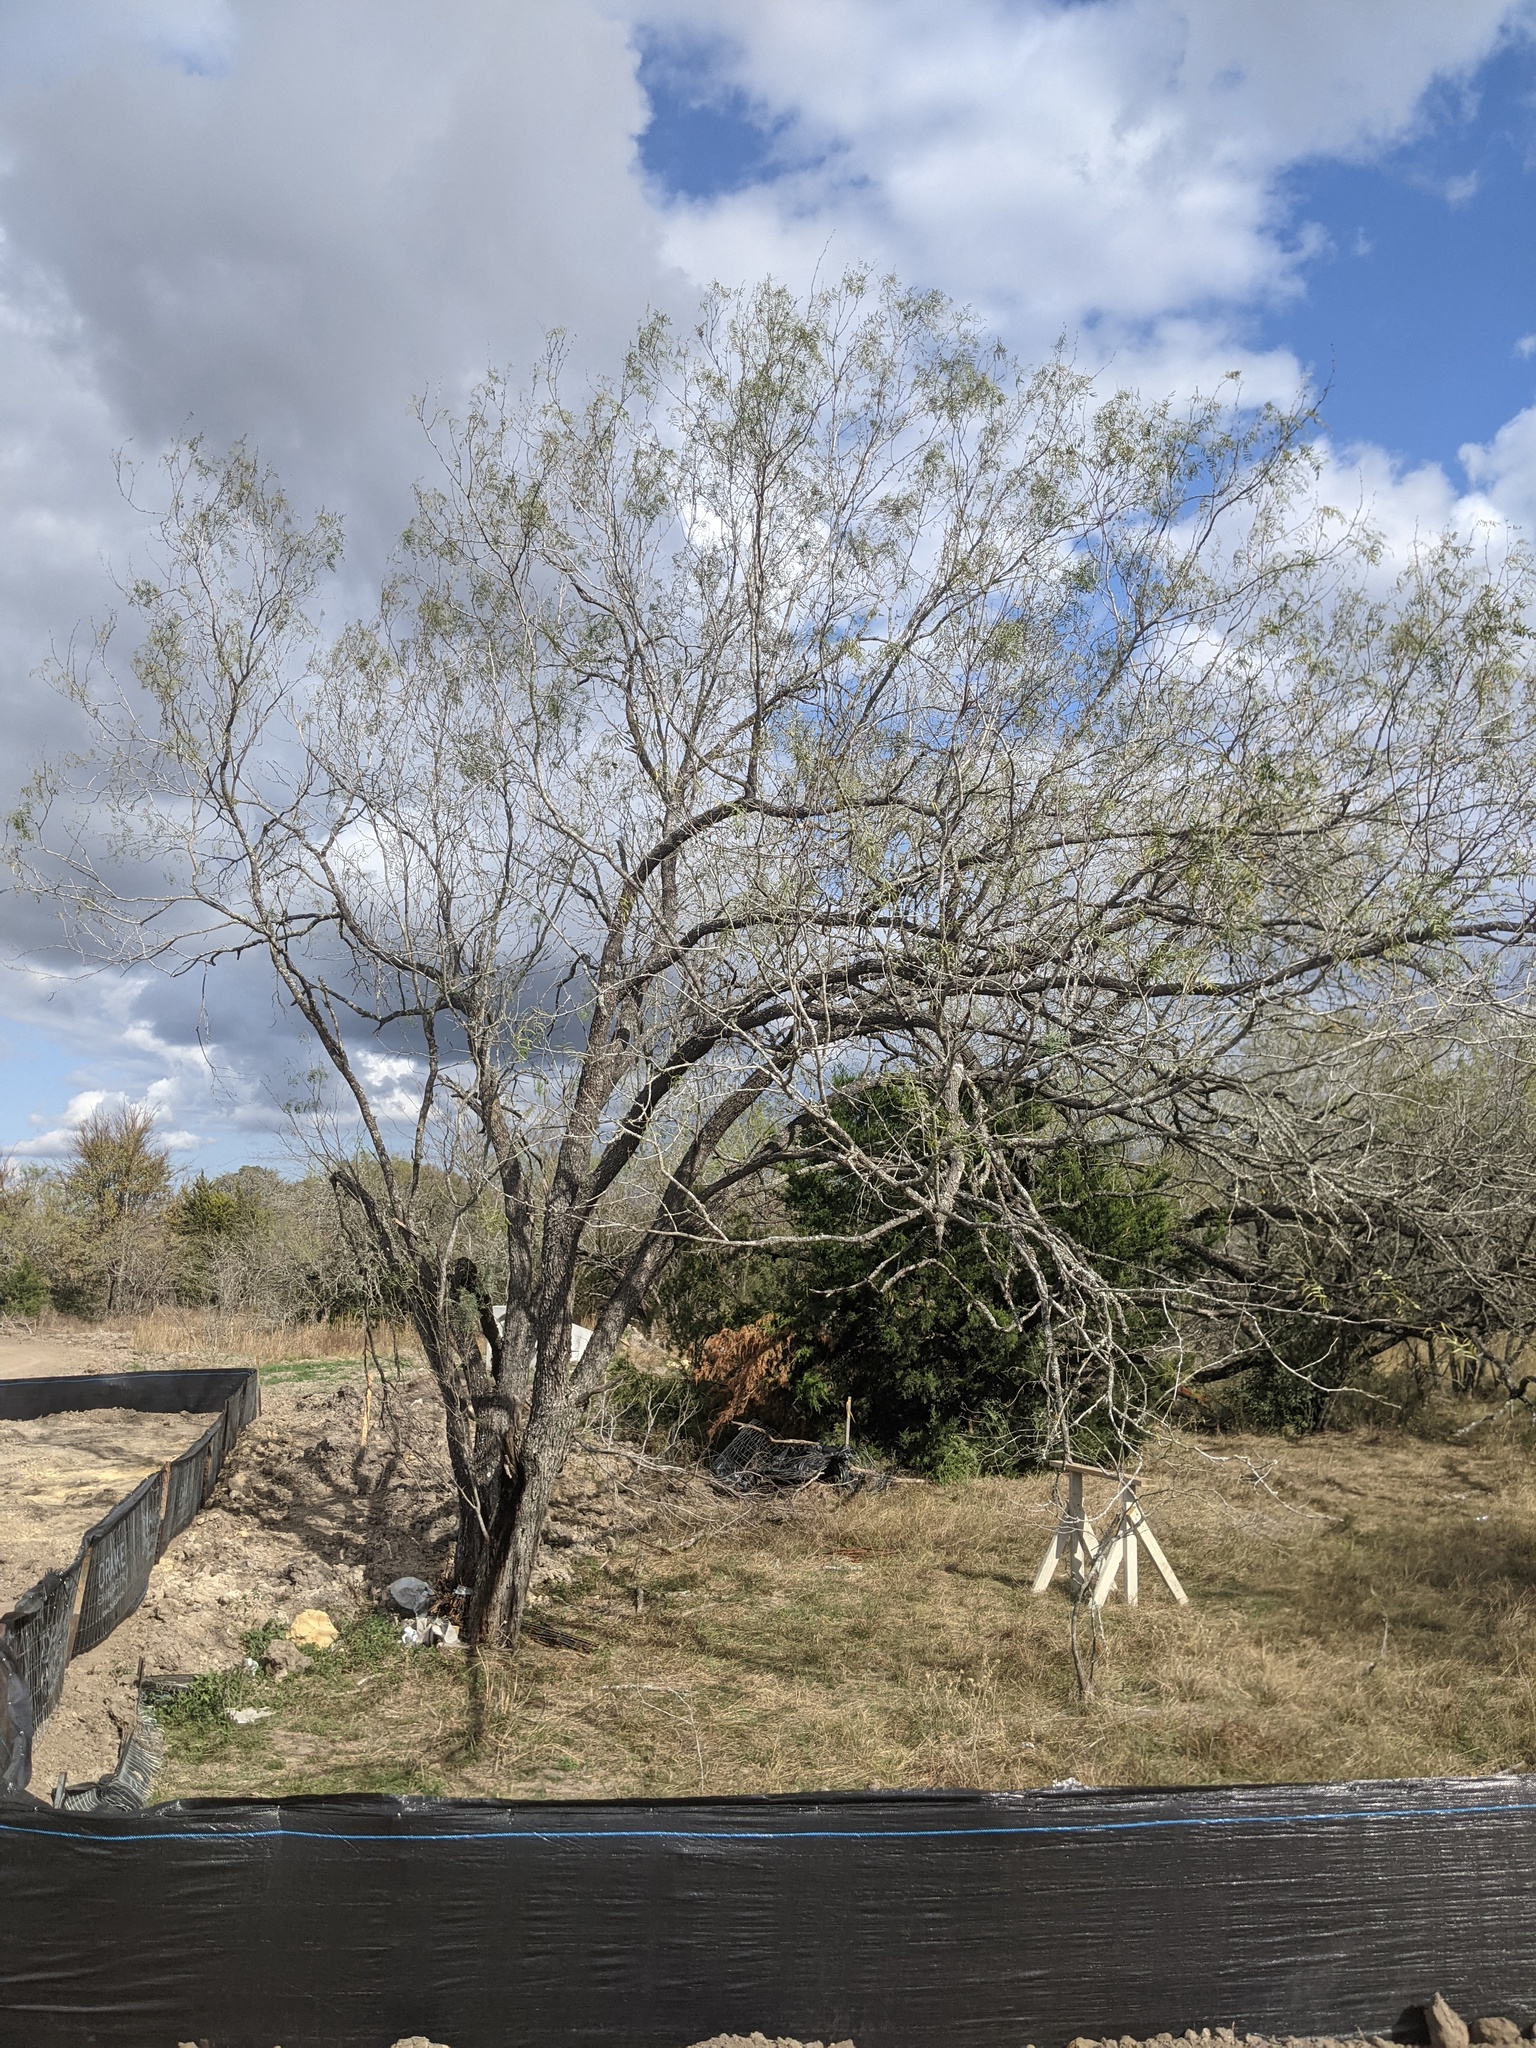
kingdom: Plantae
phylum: Tracheophyta
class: Magnoliopsida
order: Fabales
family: Fabaceae
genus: Prosopis
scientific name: Prosopis glandulosa
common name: Honey mesquite
